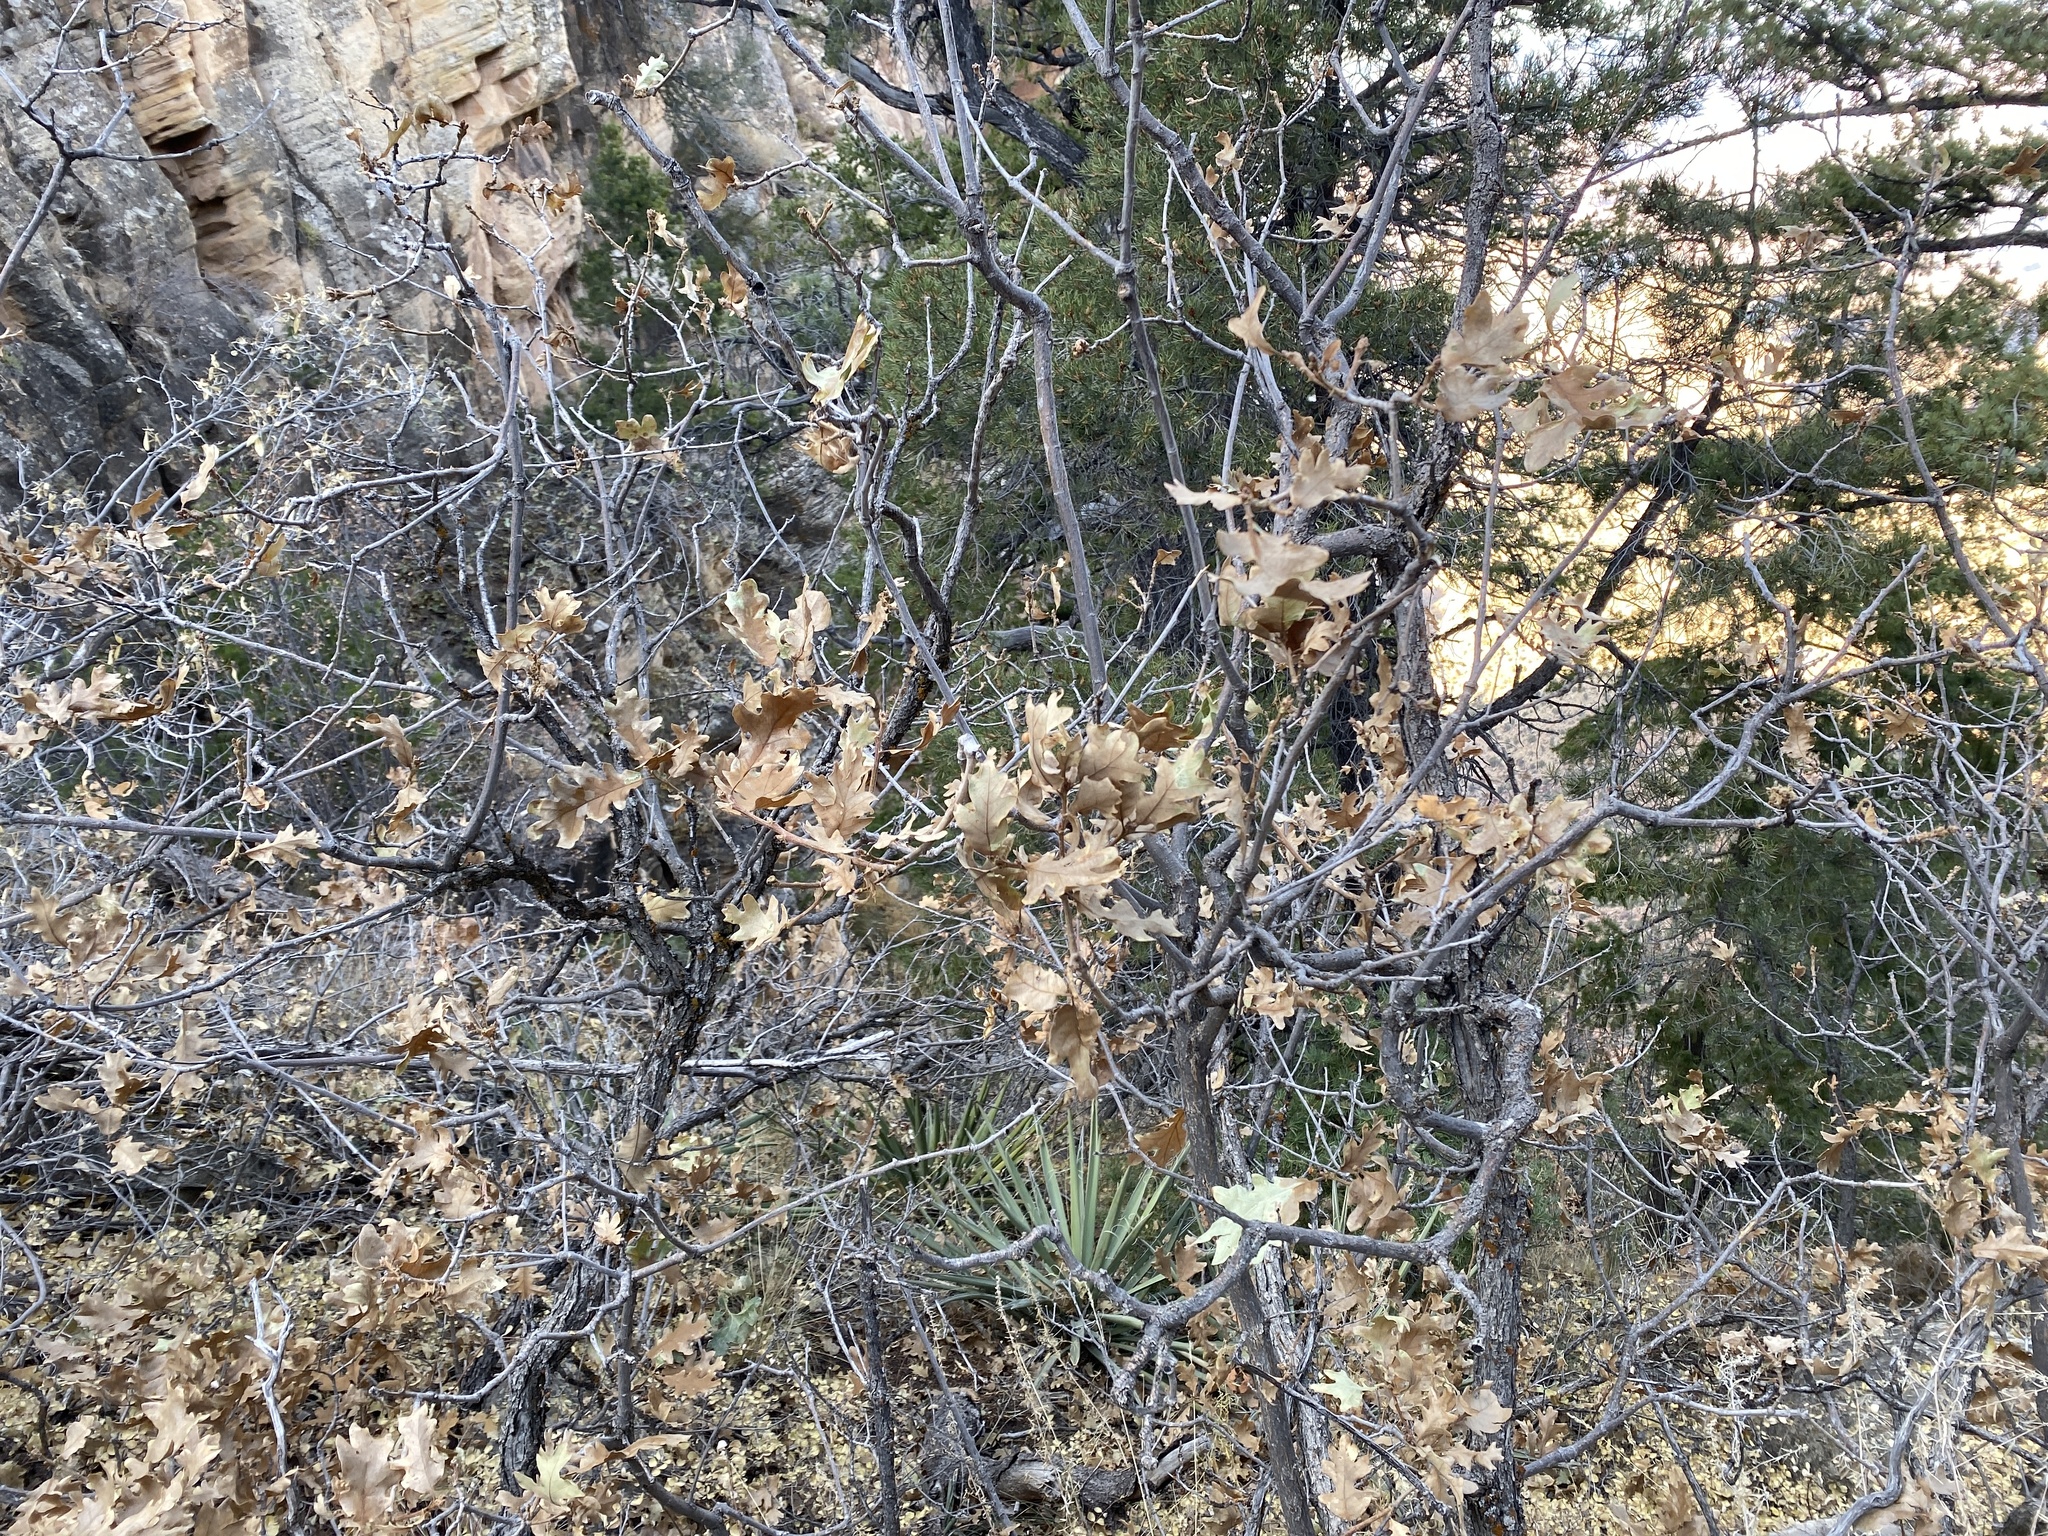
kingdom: Plantae
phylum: Tracheophyta
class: Magnoliopsida
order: Fagales
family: Fagaceae
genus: Quercus
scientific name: Quercus gambelii
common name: Gambel oak
